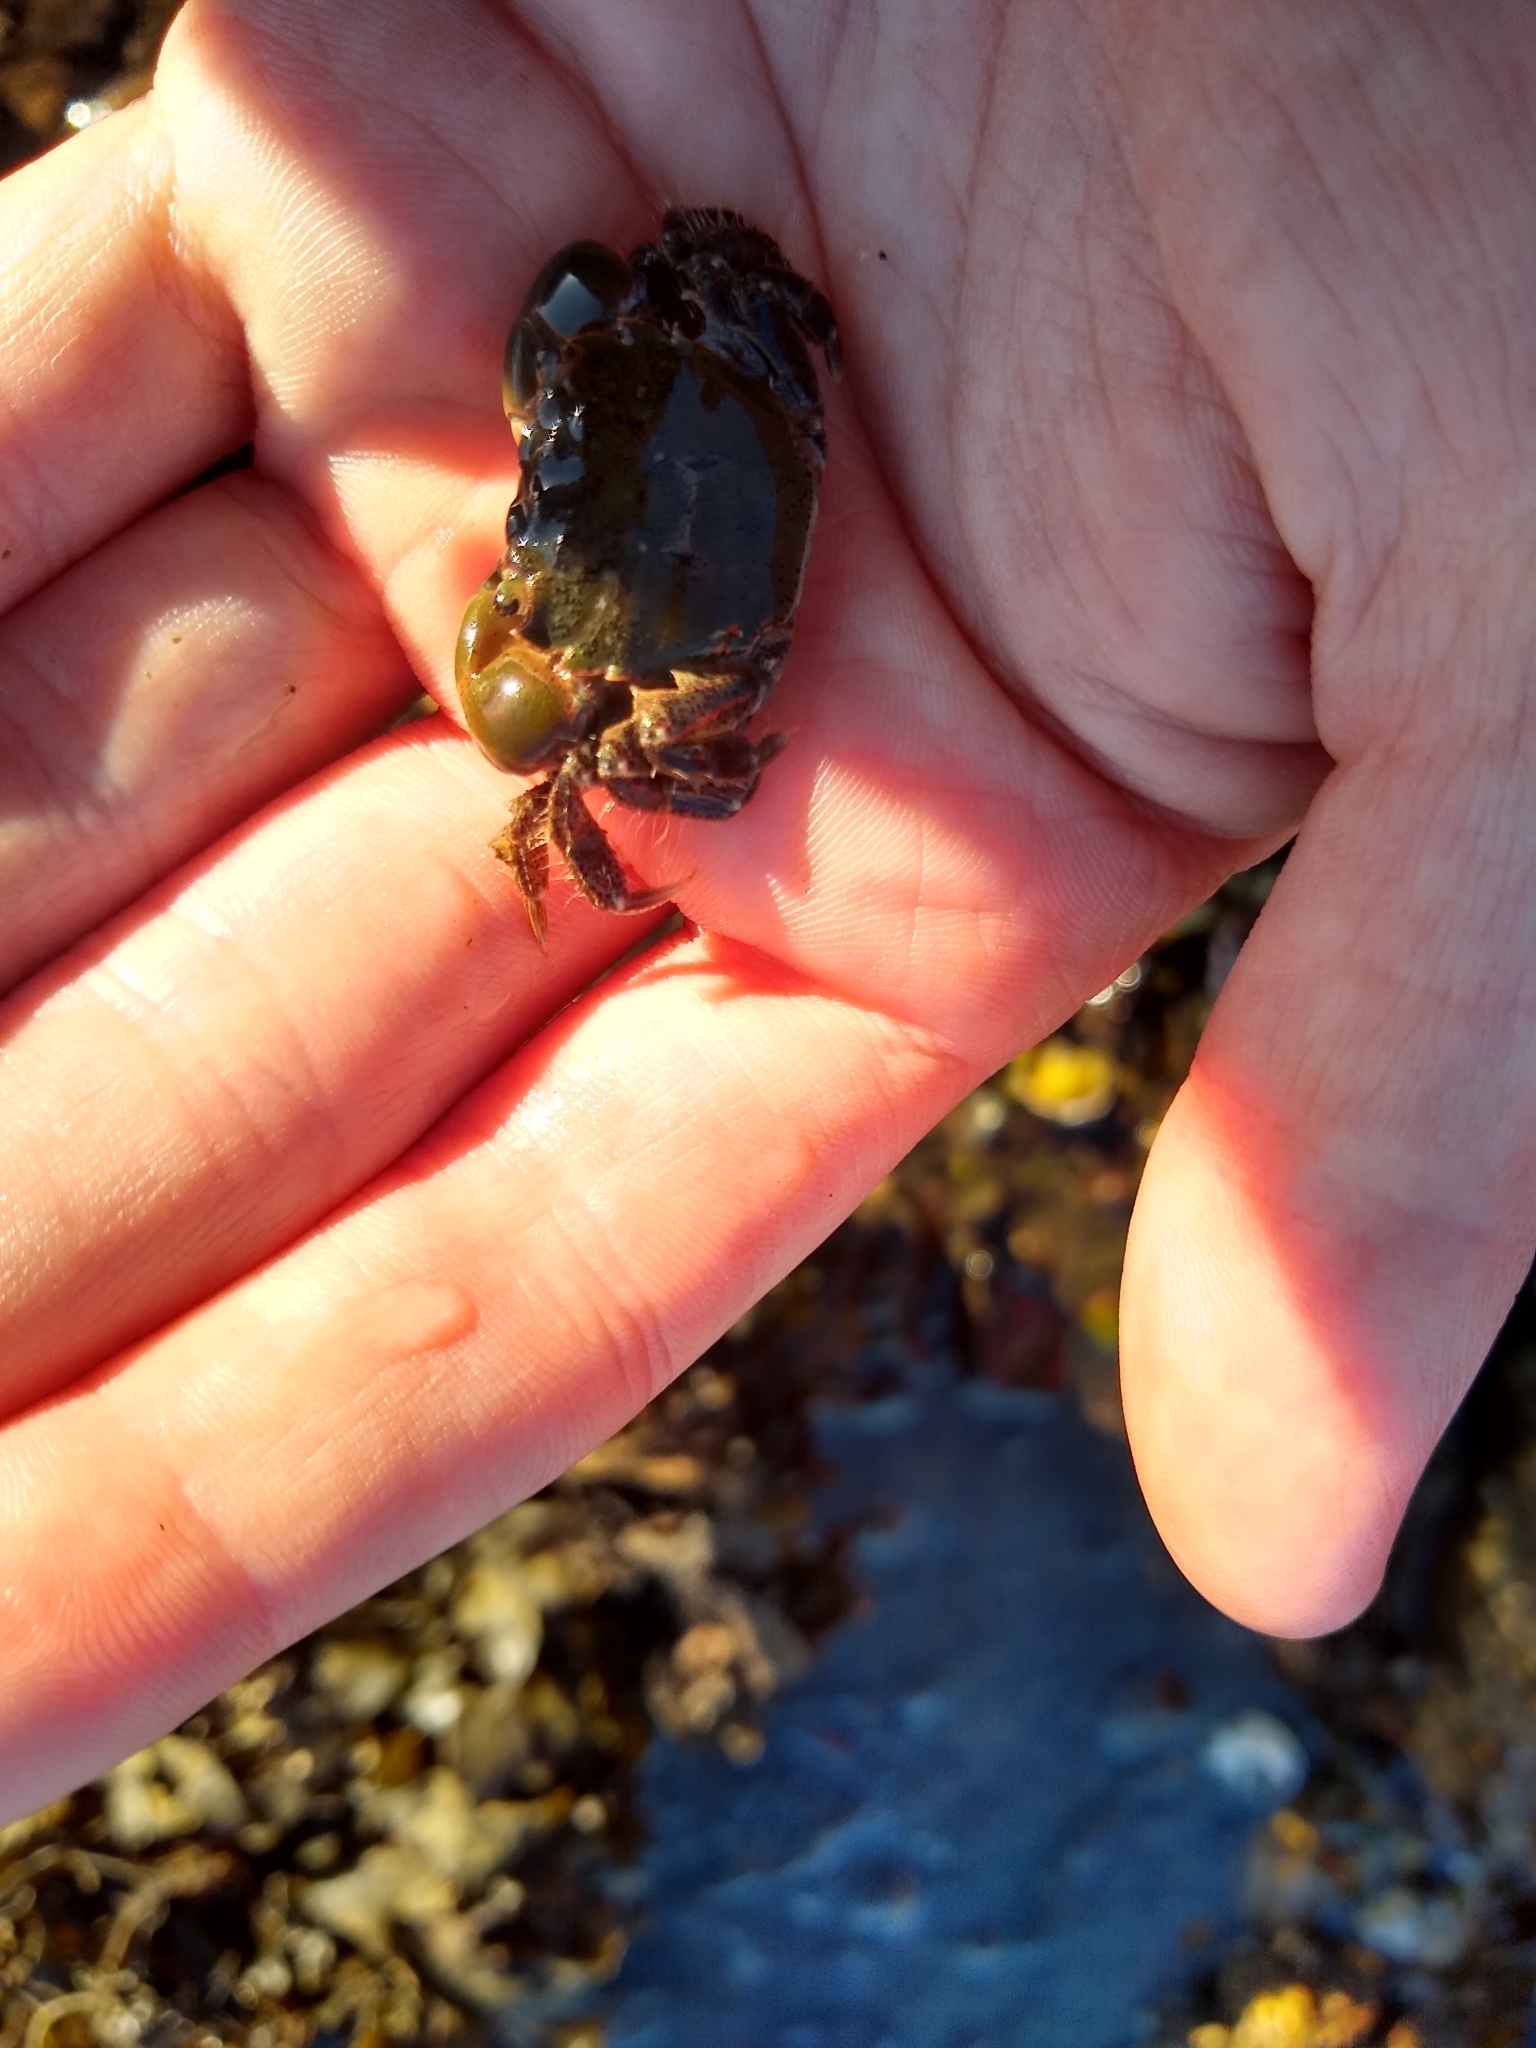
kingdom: Animalia
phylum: Arthropoda
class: Malacostraca
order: Decapoda
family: Varunidae
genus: Hemigrapsus
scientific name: Hemigrapsus oregonensis
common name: Yellow shore crab
